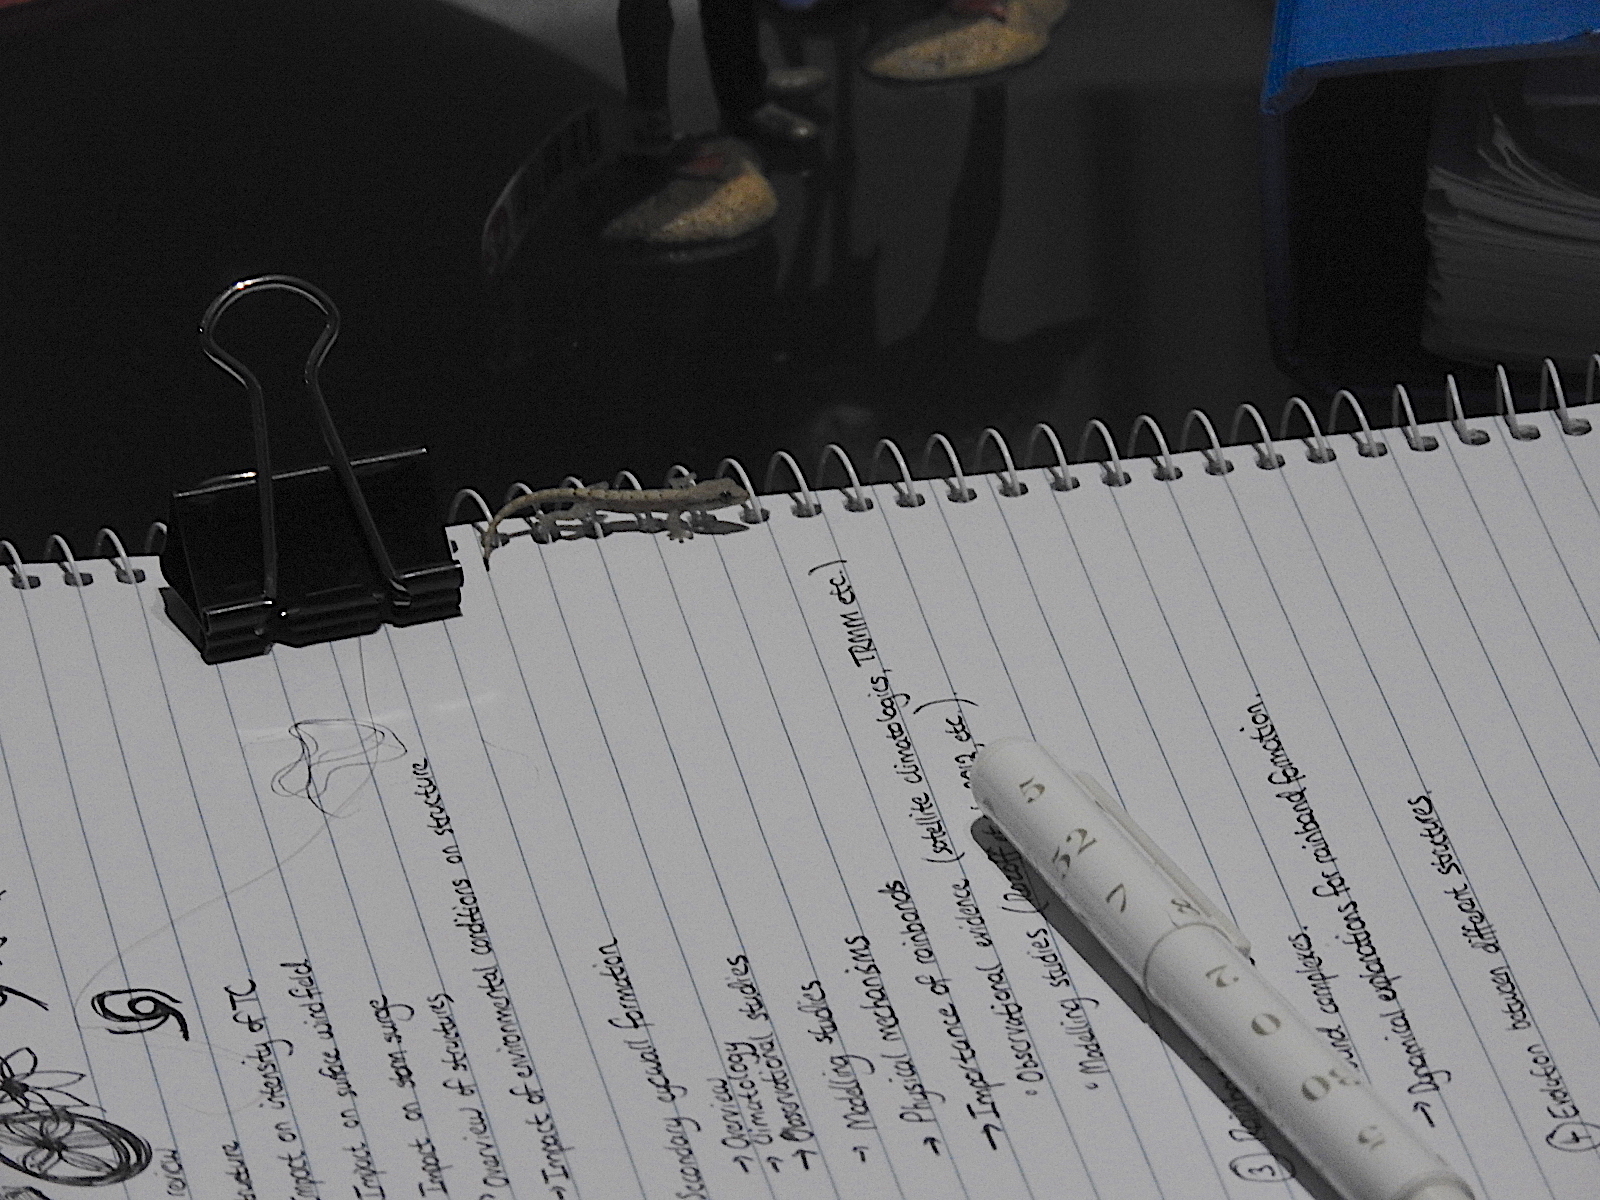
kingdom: Animalia
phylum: Chordata
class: Squamata
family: Gekkonidae
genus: Lepidodactylus
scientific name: Lepidodactylus lugubris
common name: Mourning gecko
